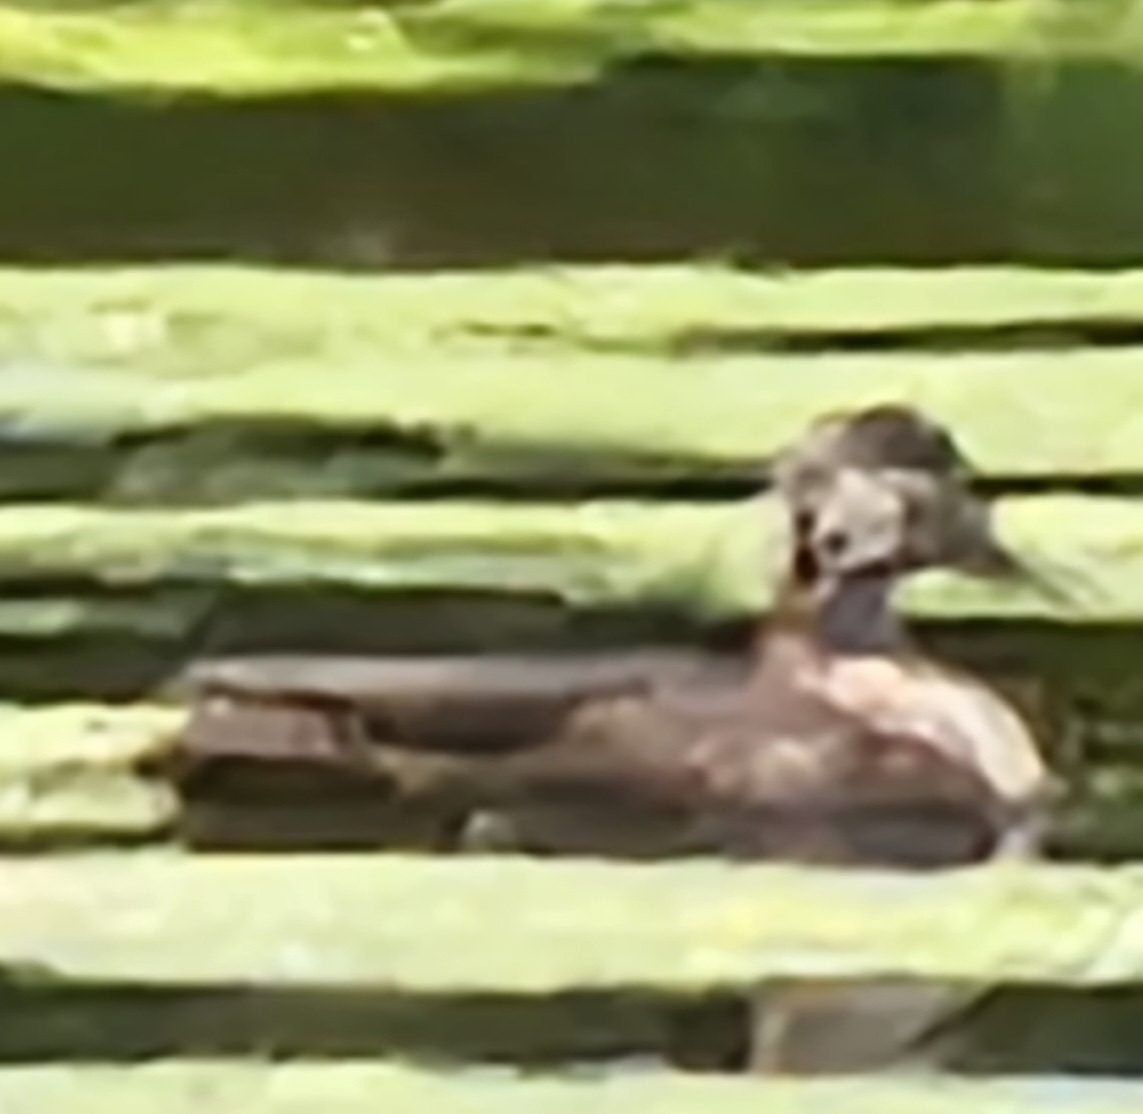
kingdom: Animalia
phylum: Chordata
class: Aves
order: Anseriformes
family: Anatidae
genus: Anas
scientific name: Anas rubripes
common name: American black duck
